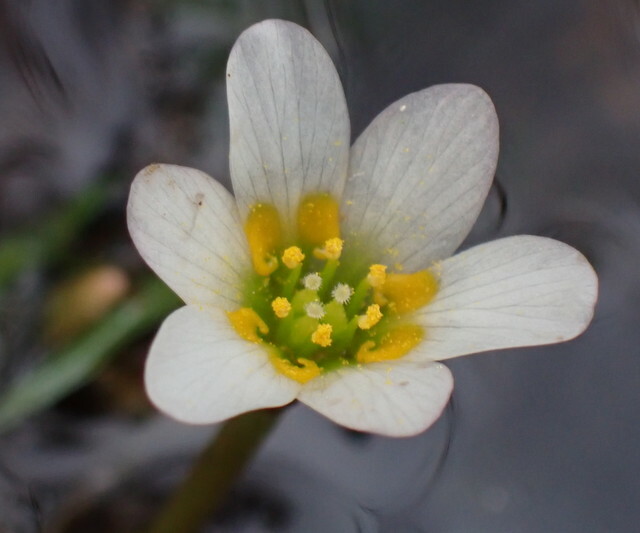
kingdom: Plantae
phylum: Tracheophyta
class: Magnoliopsida
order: Nymphaeales
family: Cabombaceae
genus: Cabomba
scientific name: Cabomba caroliniana
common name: Fanwort
